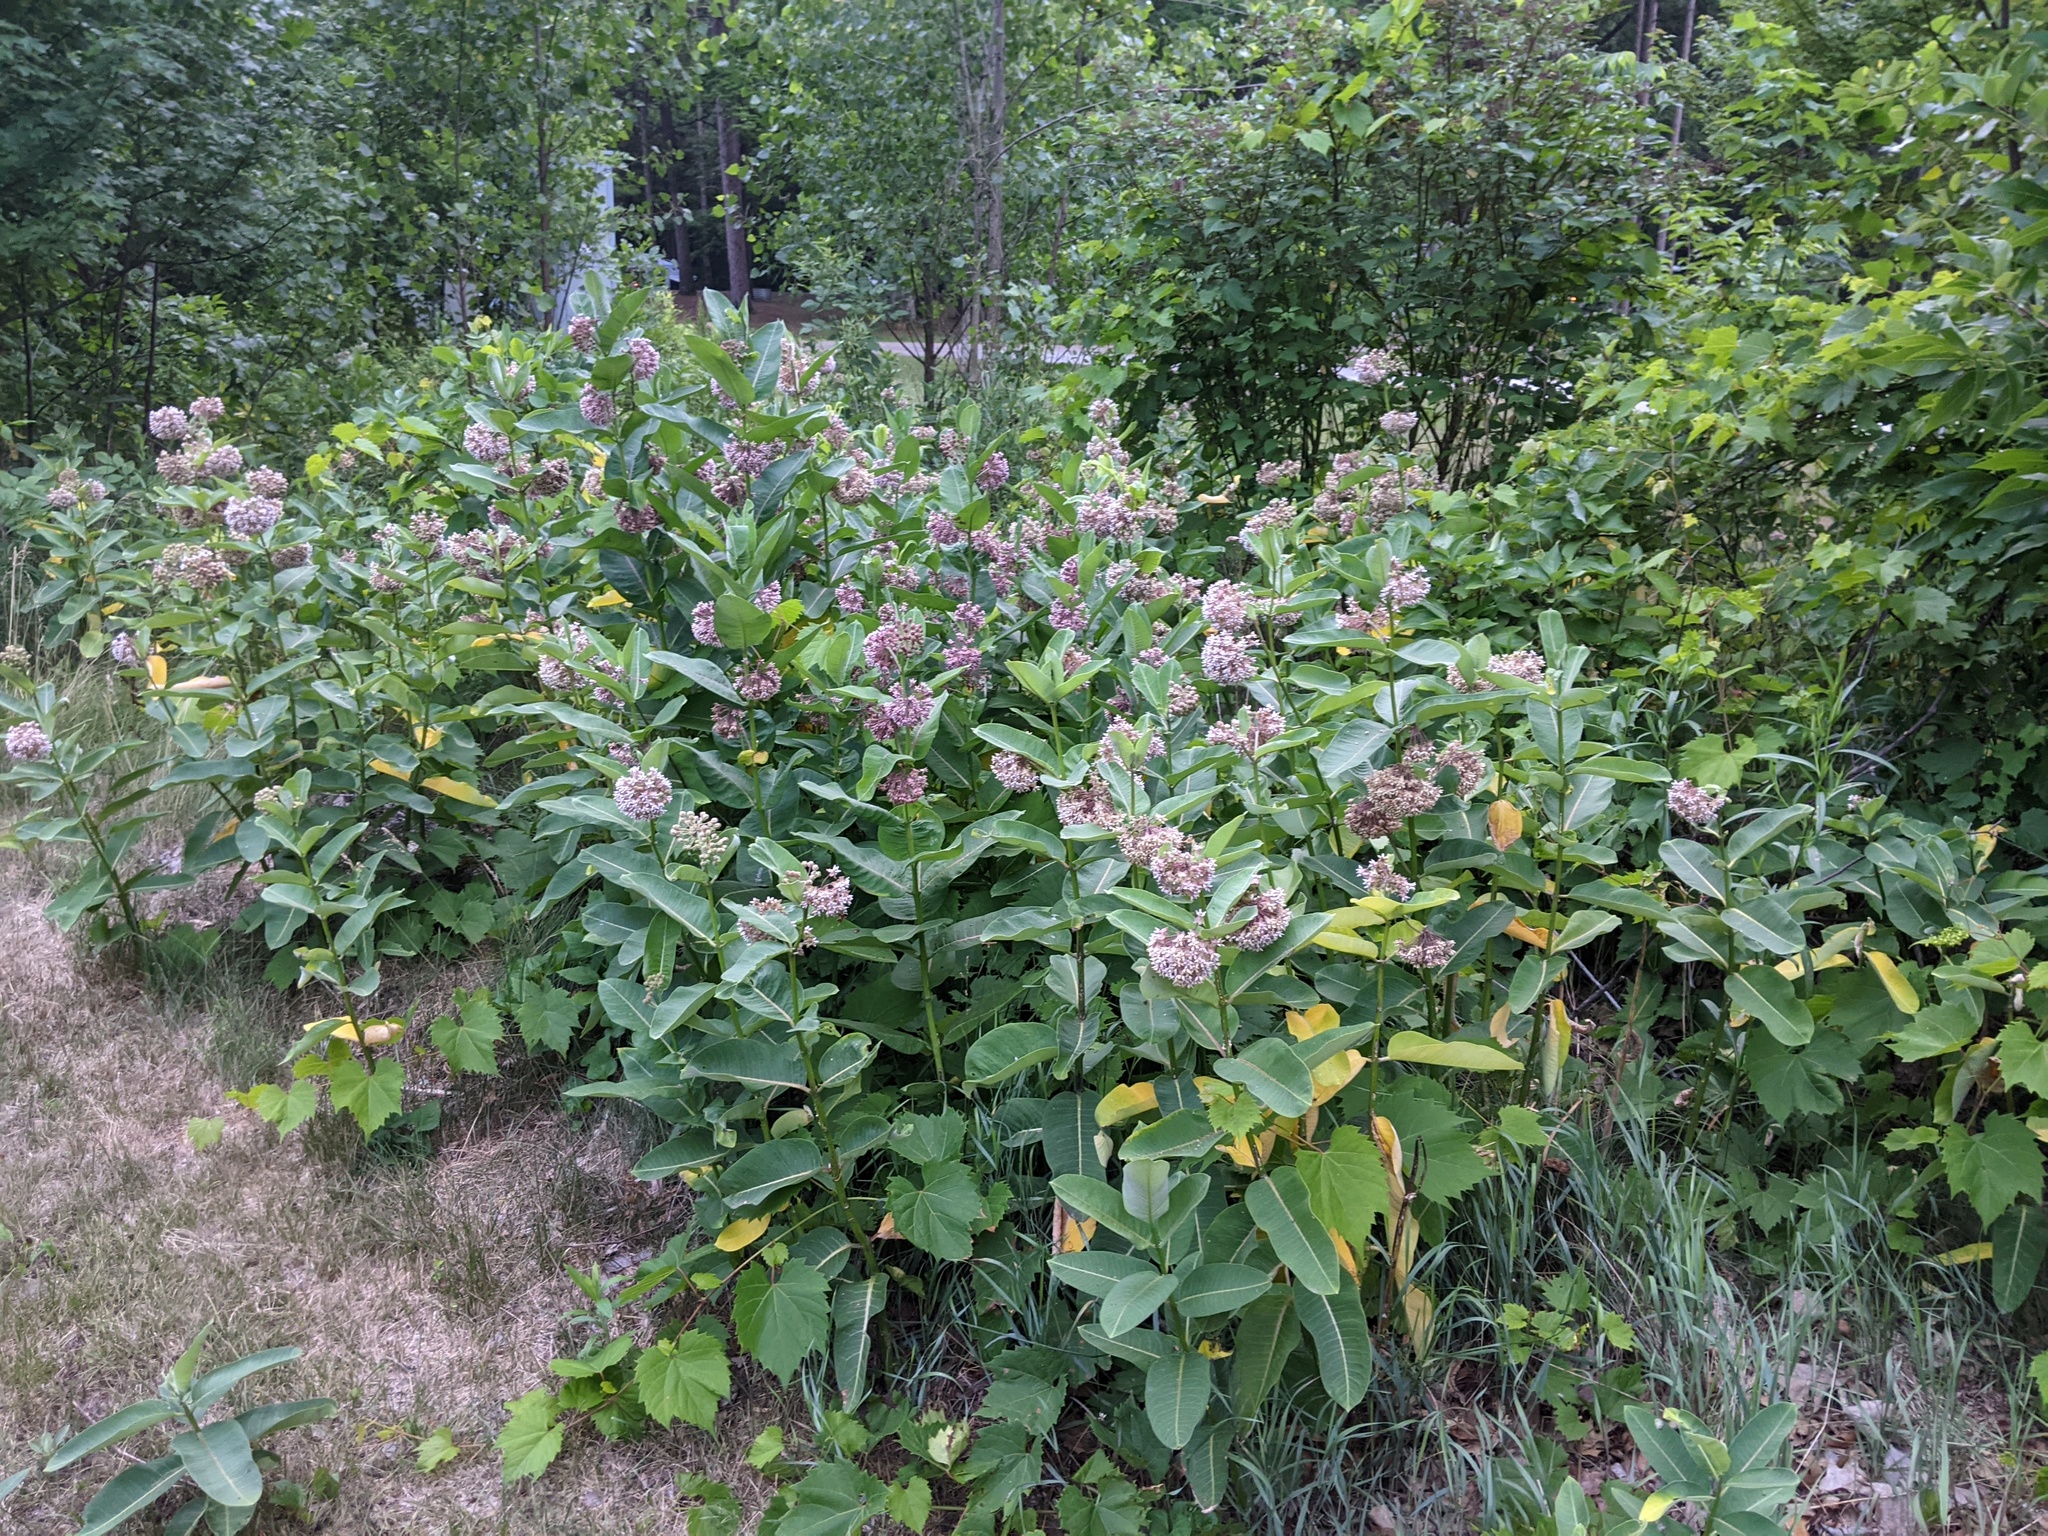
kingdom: Plantae
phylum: Tracheophyta
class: Magnoliopsida
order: Gentianales
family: Apocynaceae
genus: Asclepias
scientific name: Asclepias syriaca
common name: Common milkweed
